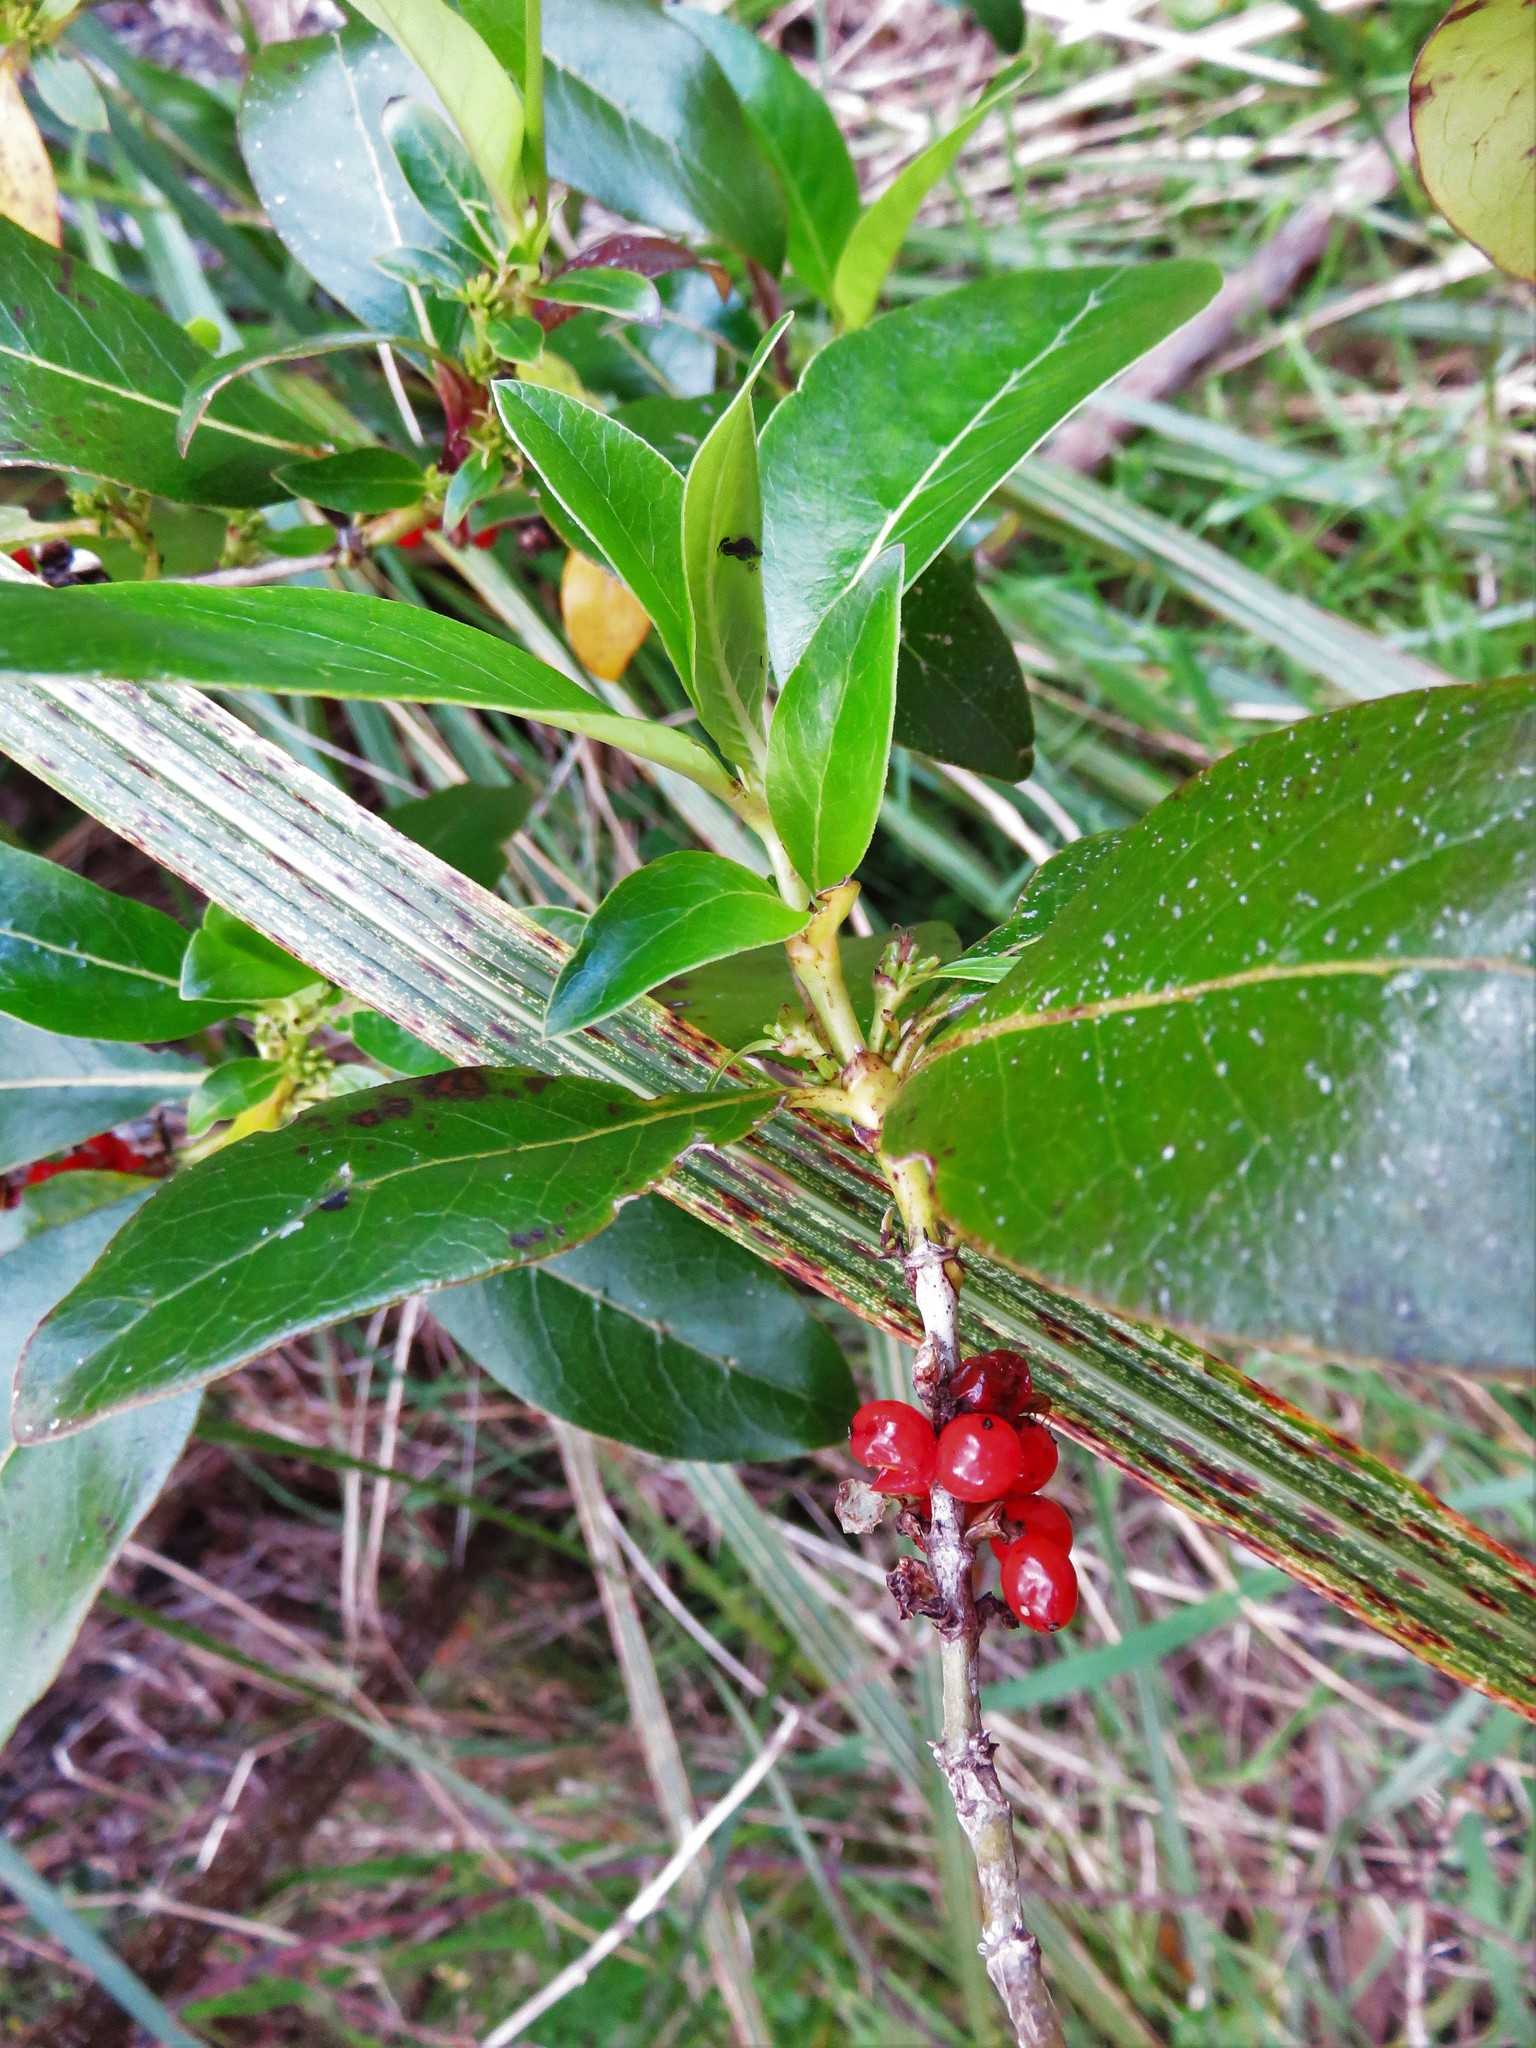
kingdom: Plantae
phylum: Tracheophyta
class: Magnoliopsida
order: Gentianales
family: Rubiaceae
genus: Coprosma
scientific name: Coprosma robusta
